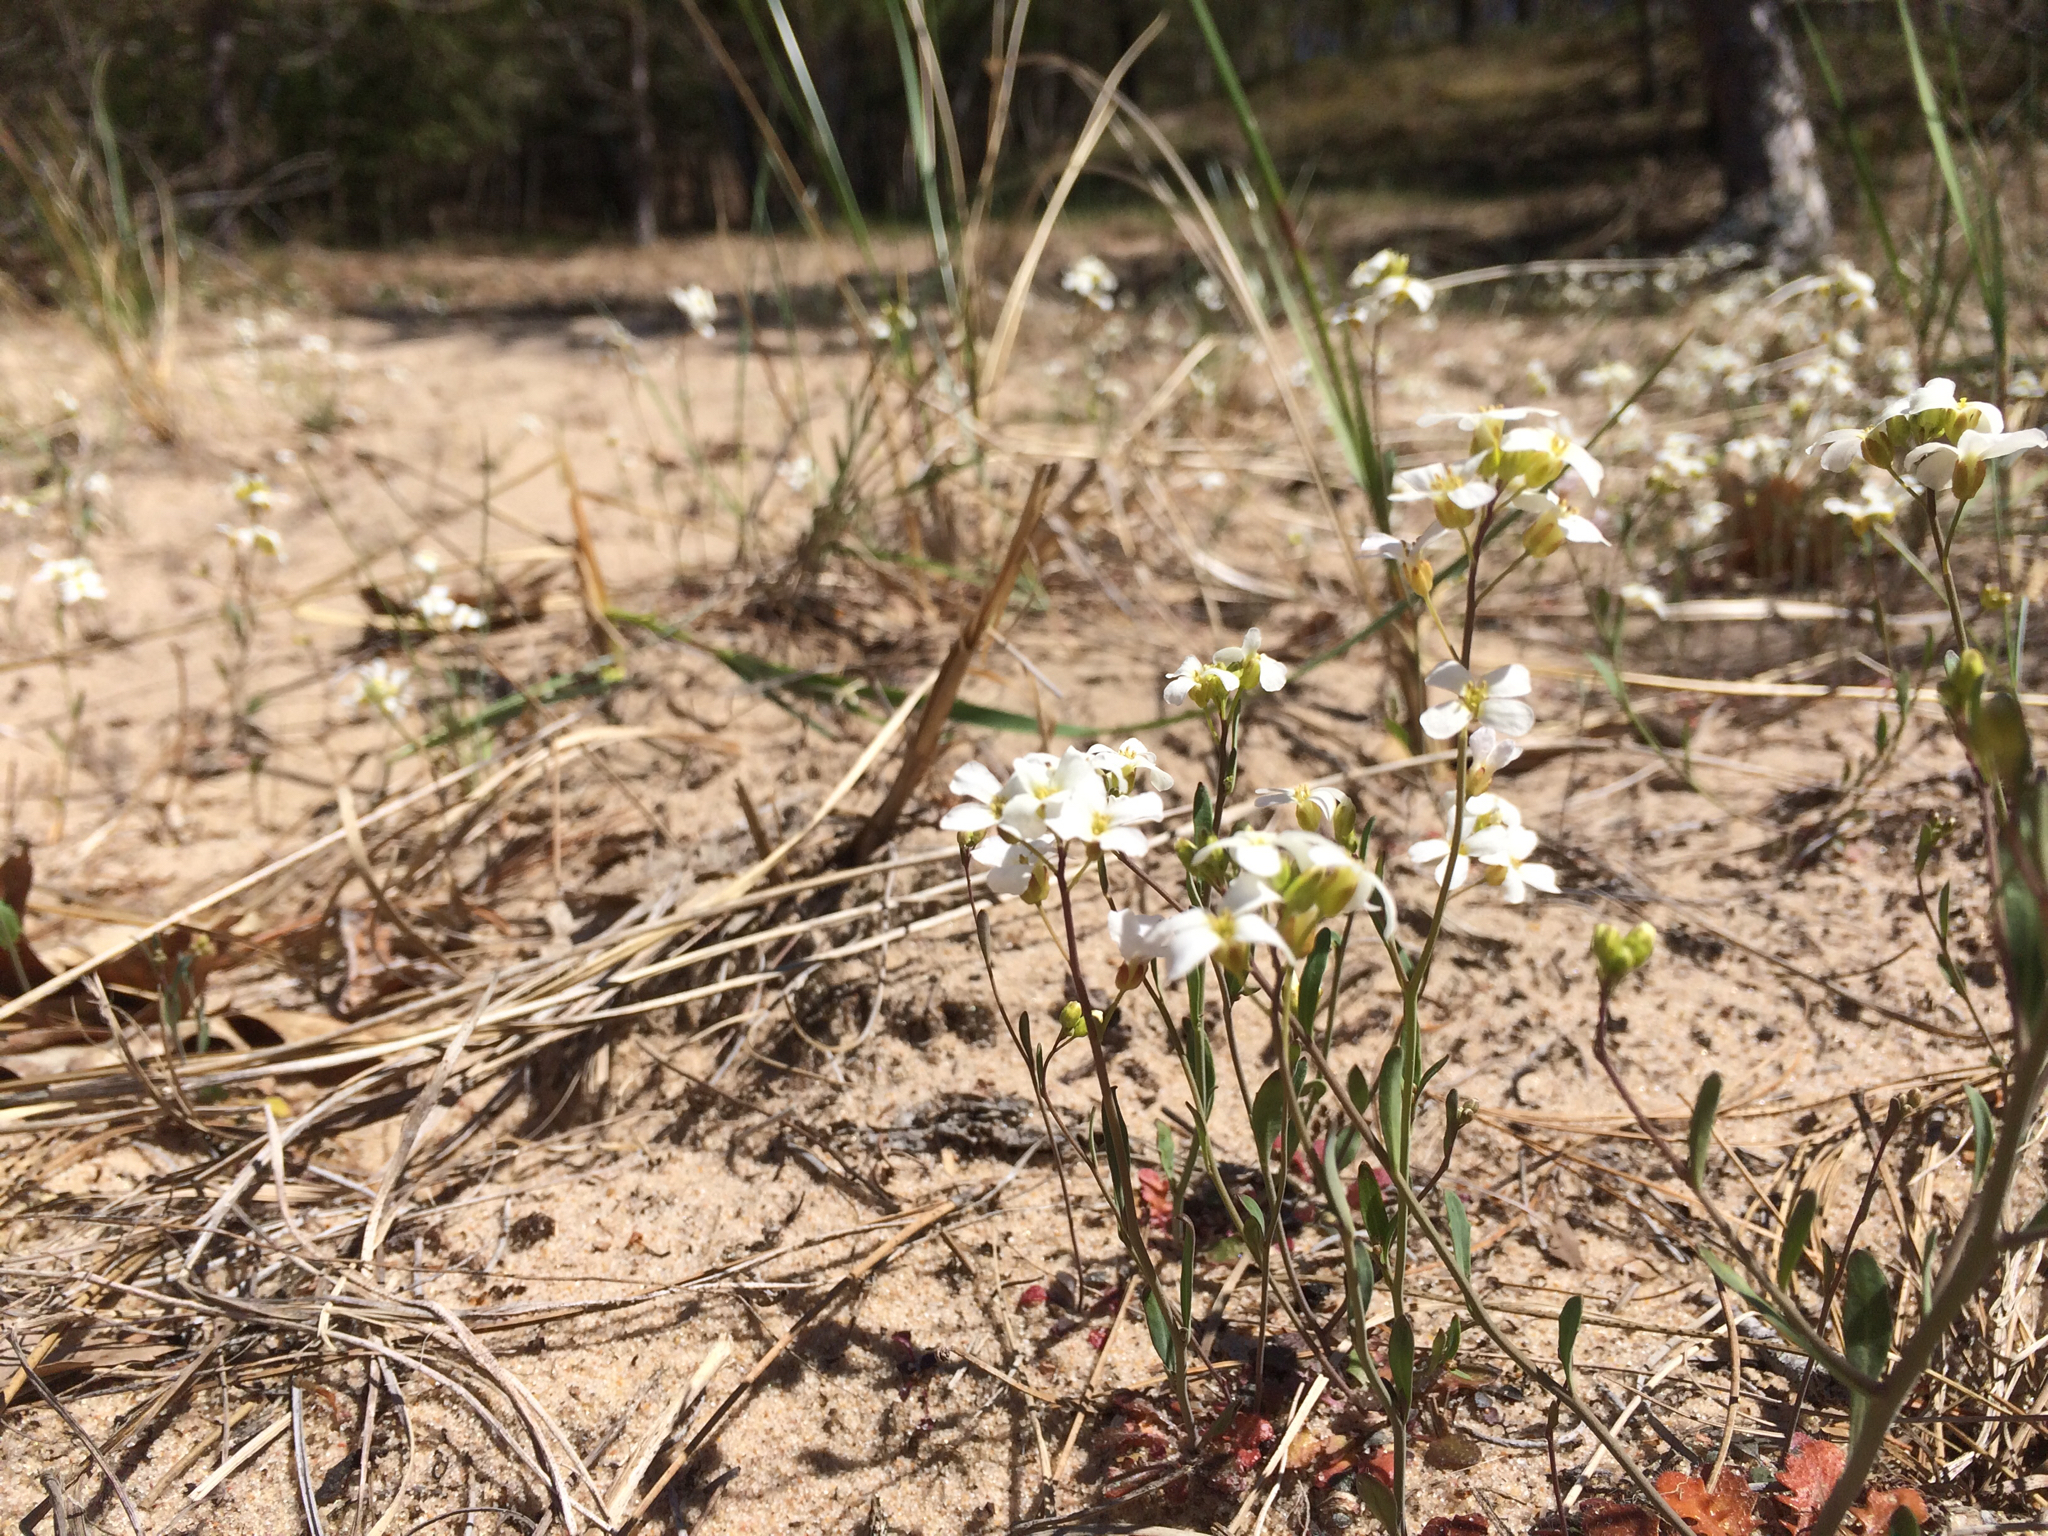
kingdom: Plantae
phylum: Tracheophyta
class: Magnoliopsida
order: Brassicales
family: Brassicaceae
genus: Arabidopsis
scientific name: Arabidopsis lyrata
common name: Lyrate rockcress
